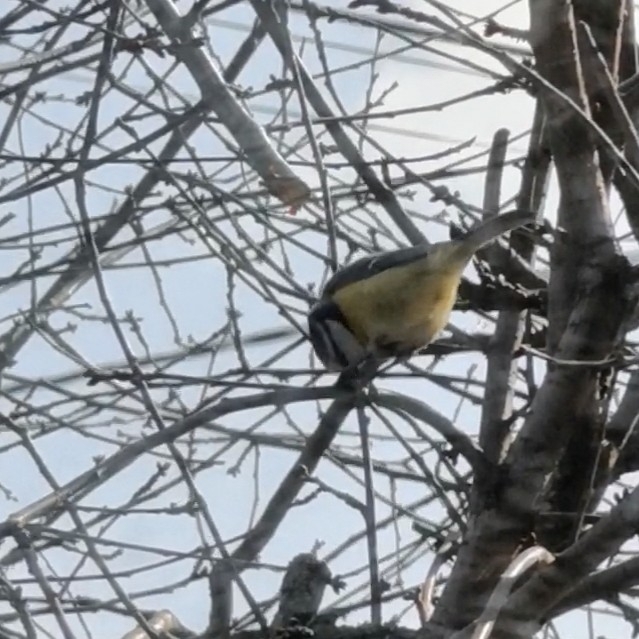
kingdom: Animalia
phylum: Chordata
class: Aves
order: Passeriformes
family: Paridae
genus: Cyanistes
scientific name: Cyanistes caeruleus
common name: Eurasian blue tit
